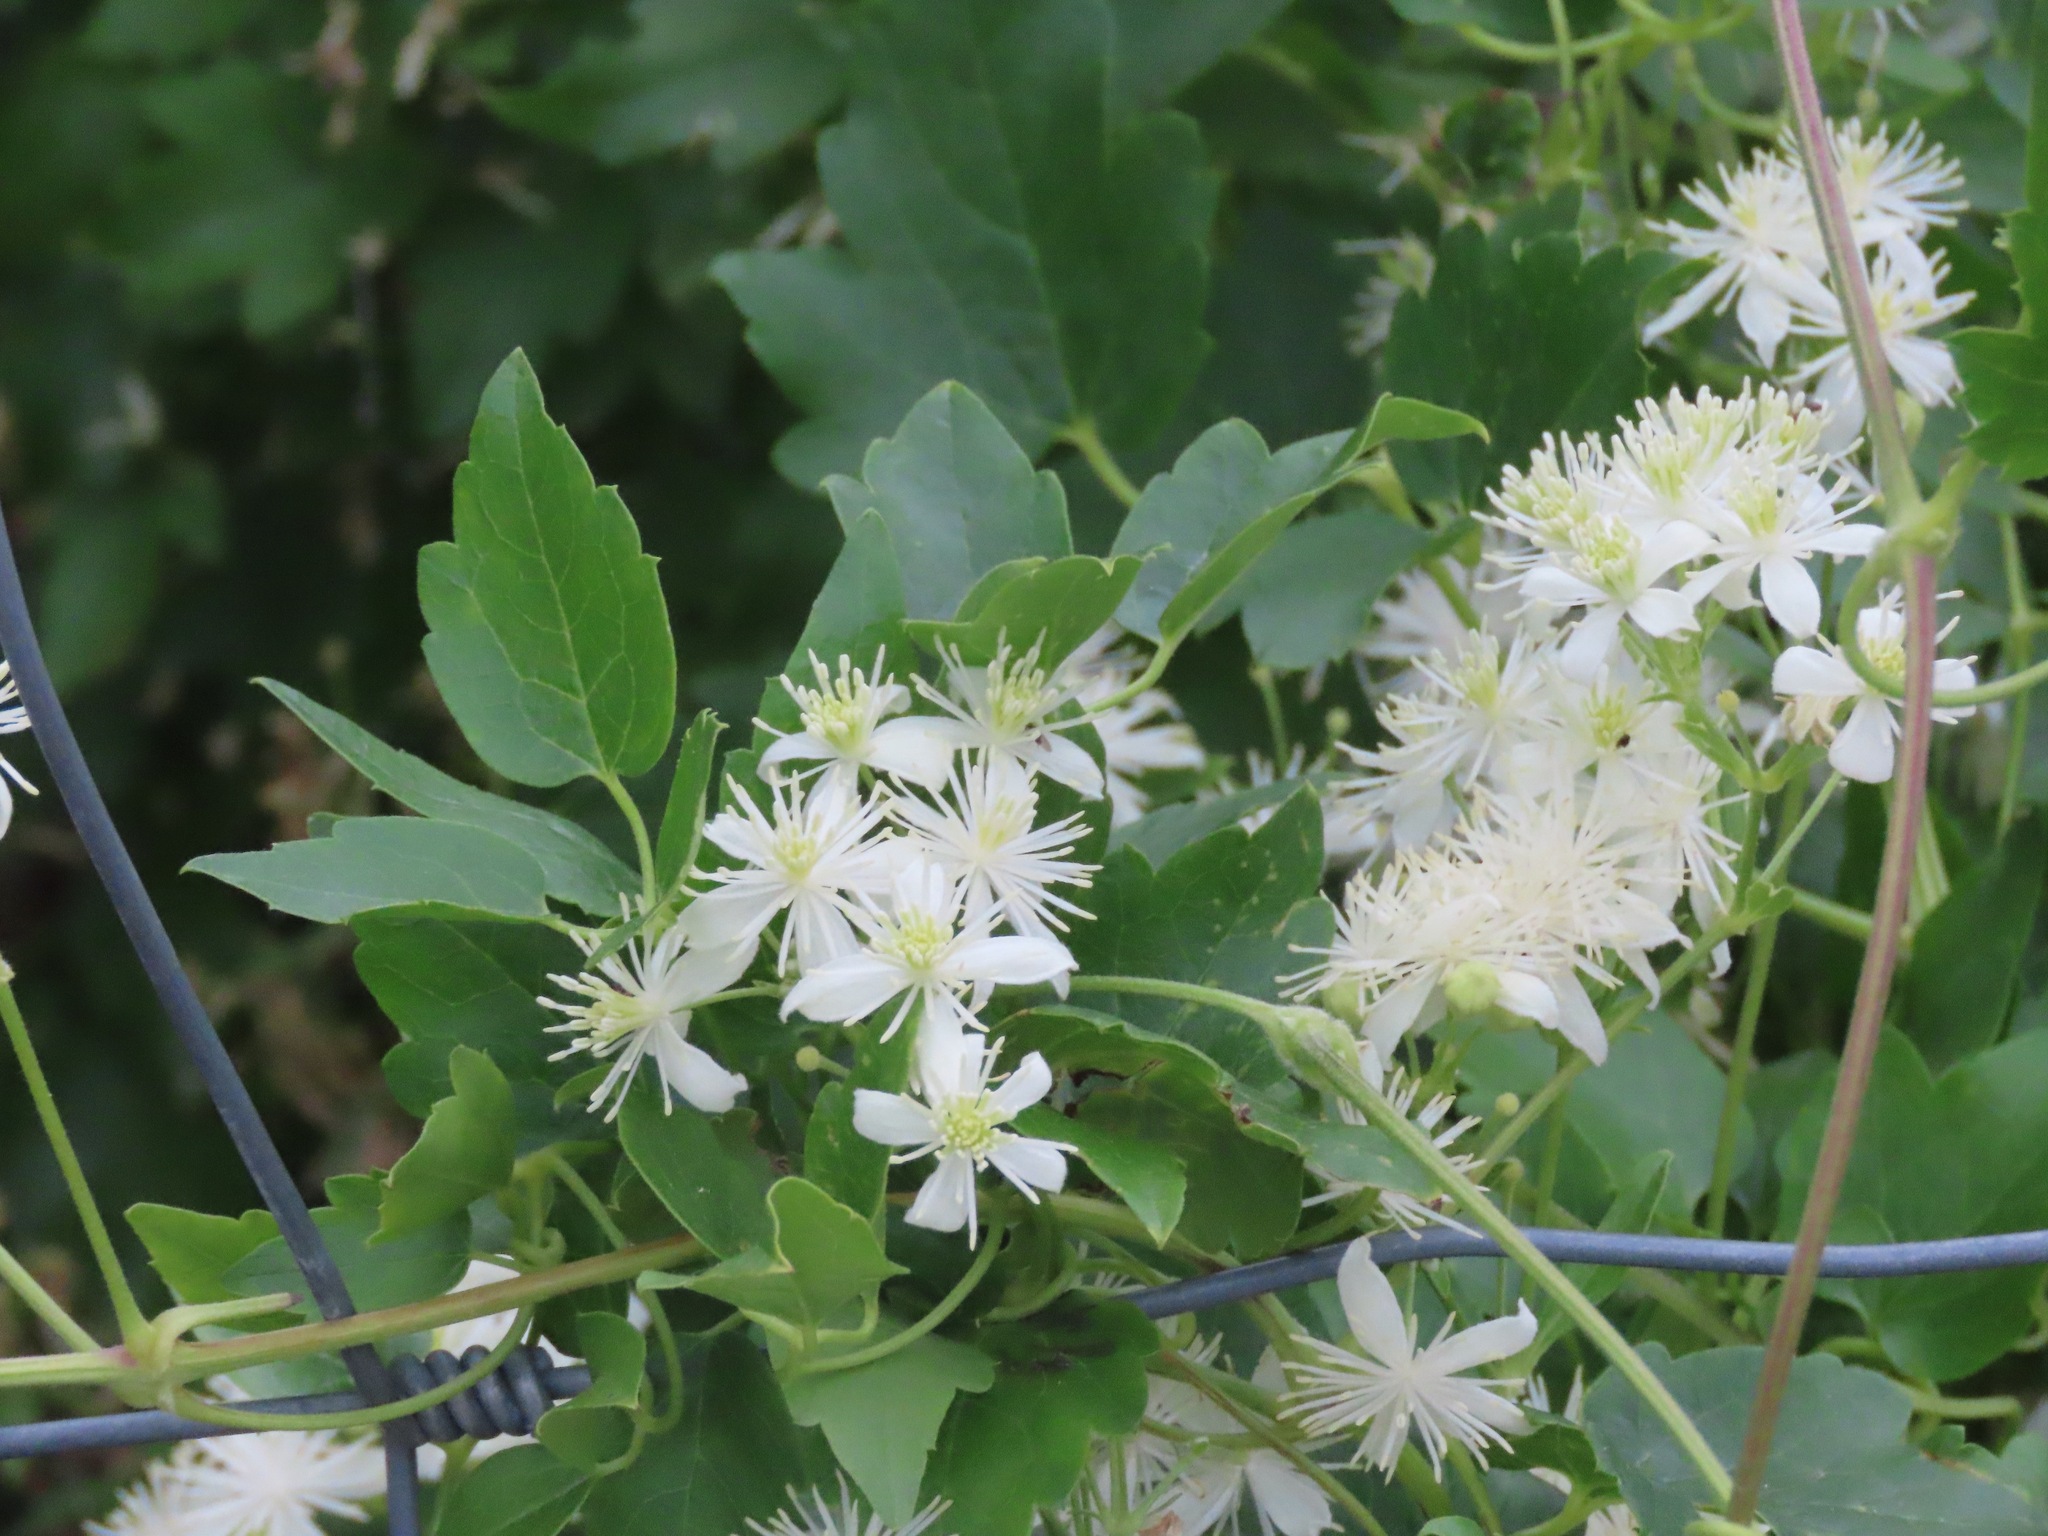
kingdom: Plantae
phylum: Tracheophyta
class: Magnoliopsida
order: Ranunculales
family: Ranunculaceae
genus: Clematis
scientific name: Clematis ligusticifolia
